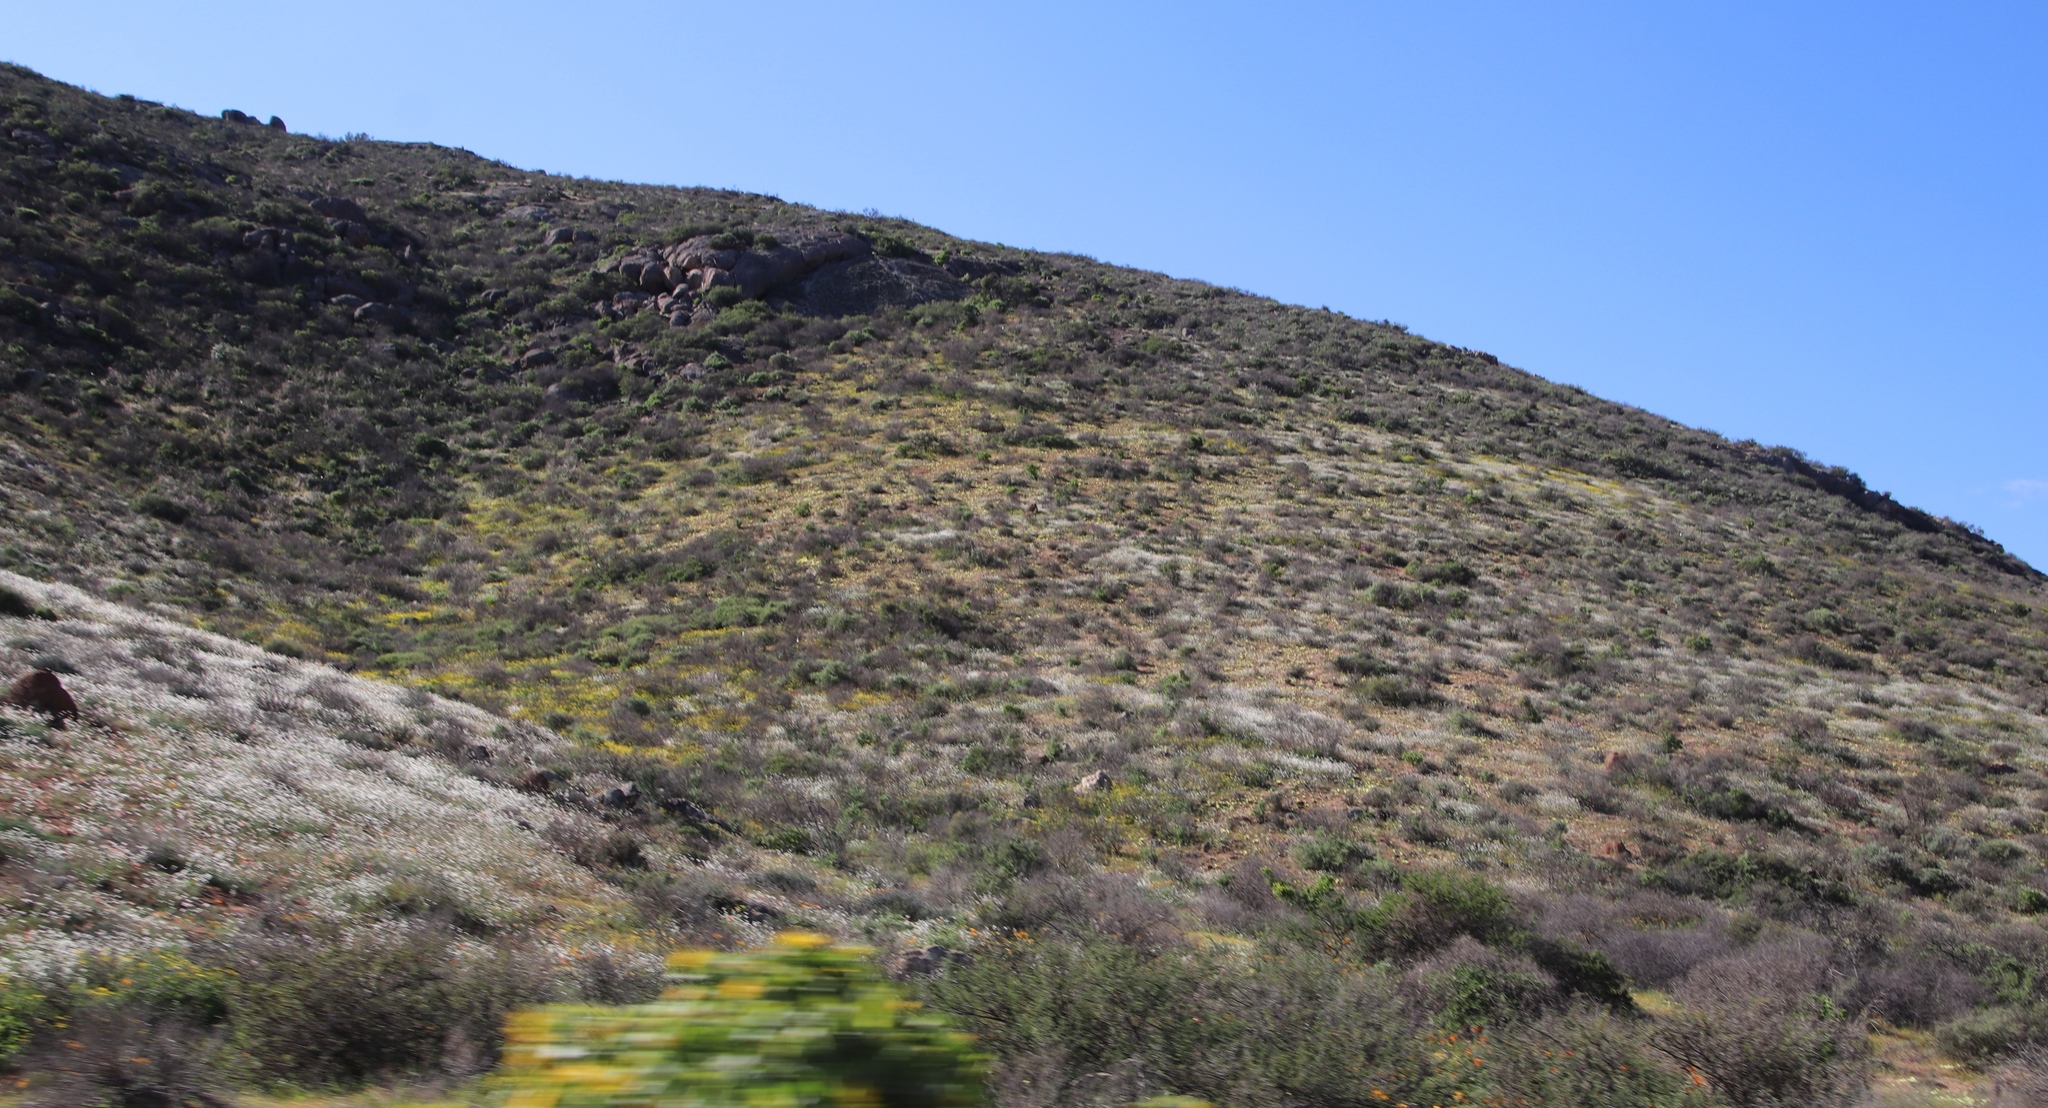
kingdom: Plantae
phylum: Tracheophyta
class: Magnoliopsida
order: Brassicales
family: Brassicaceae
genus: Heliophila
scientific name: Heliophila variabilis
